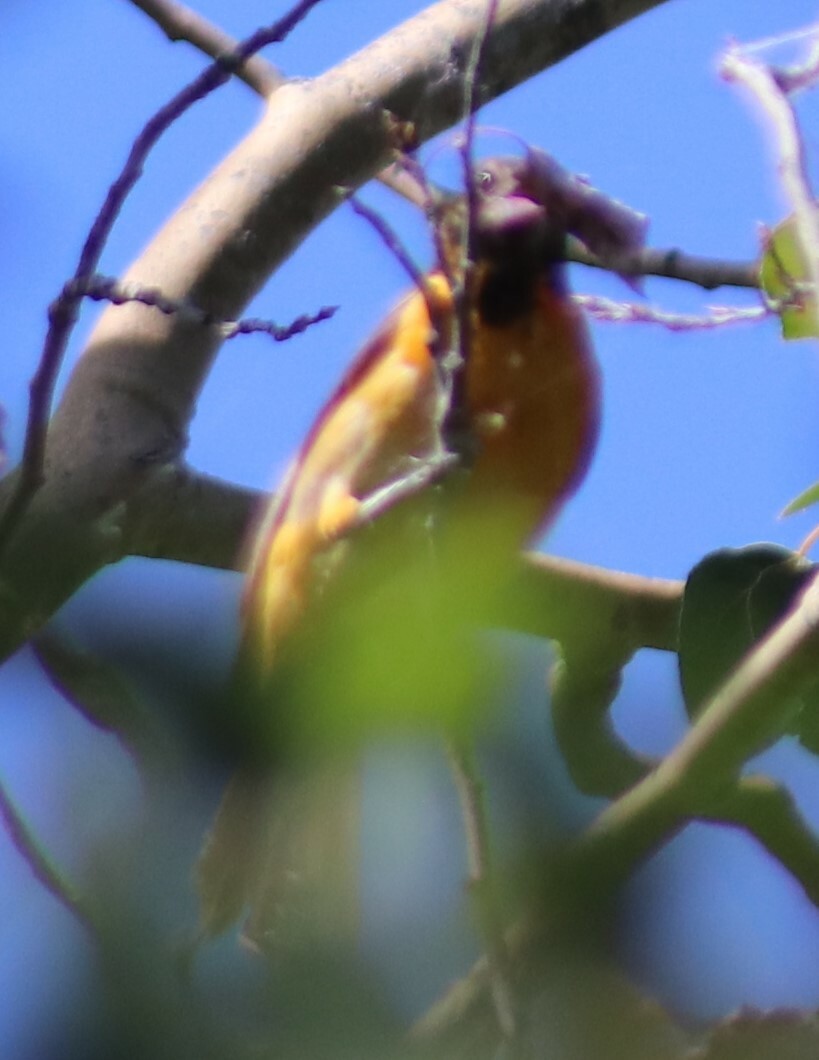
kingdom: Animalia
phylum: Chordata
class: Aves
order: Passeriformes
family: Icteridae
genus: Icterus
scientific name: Icterus galbula
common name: Baltimore oriole
